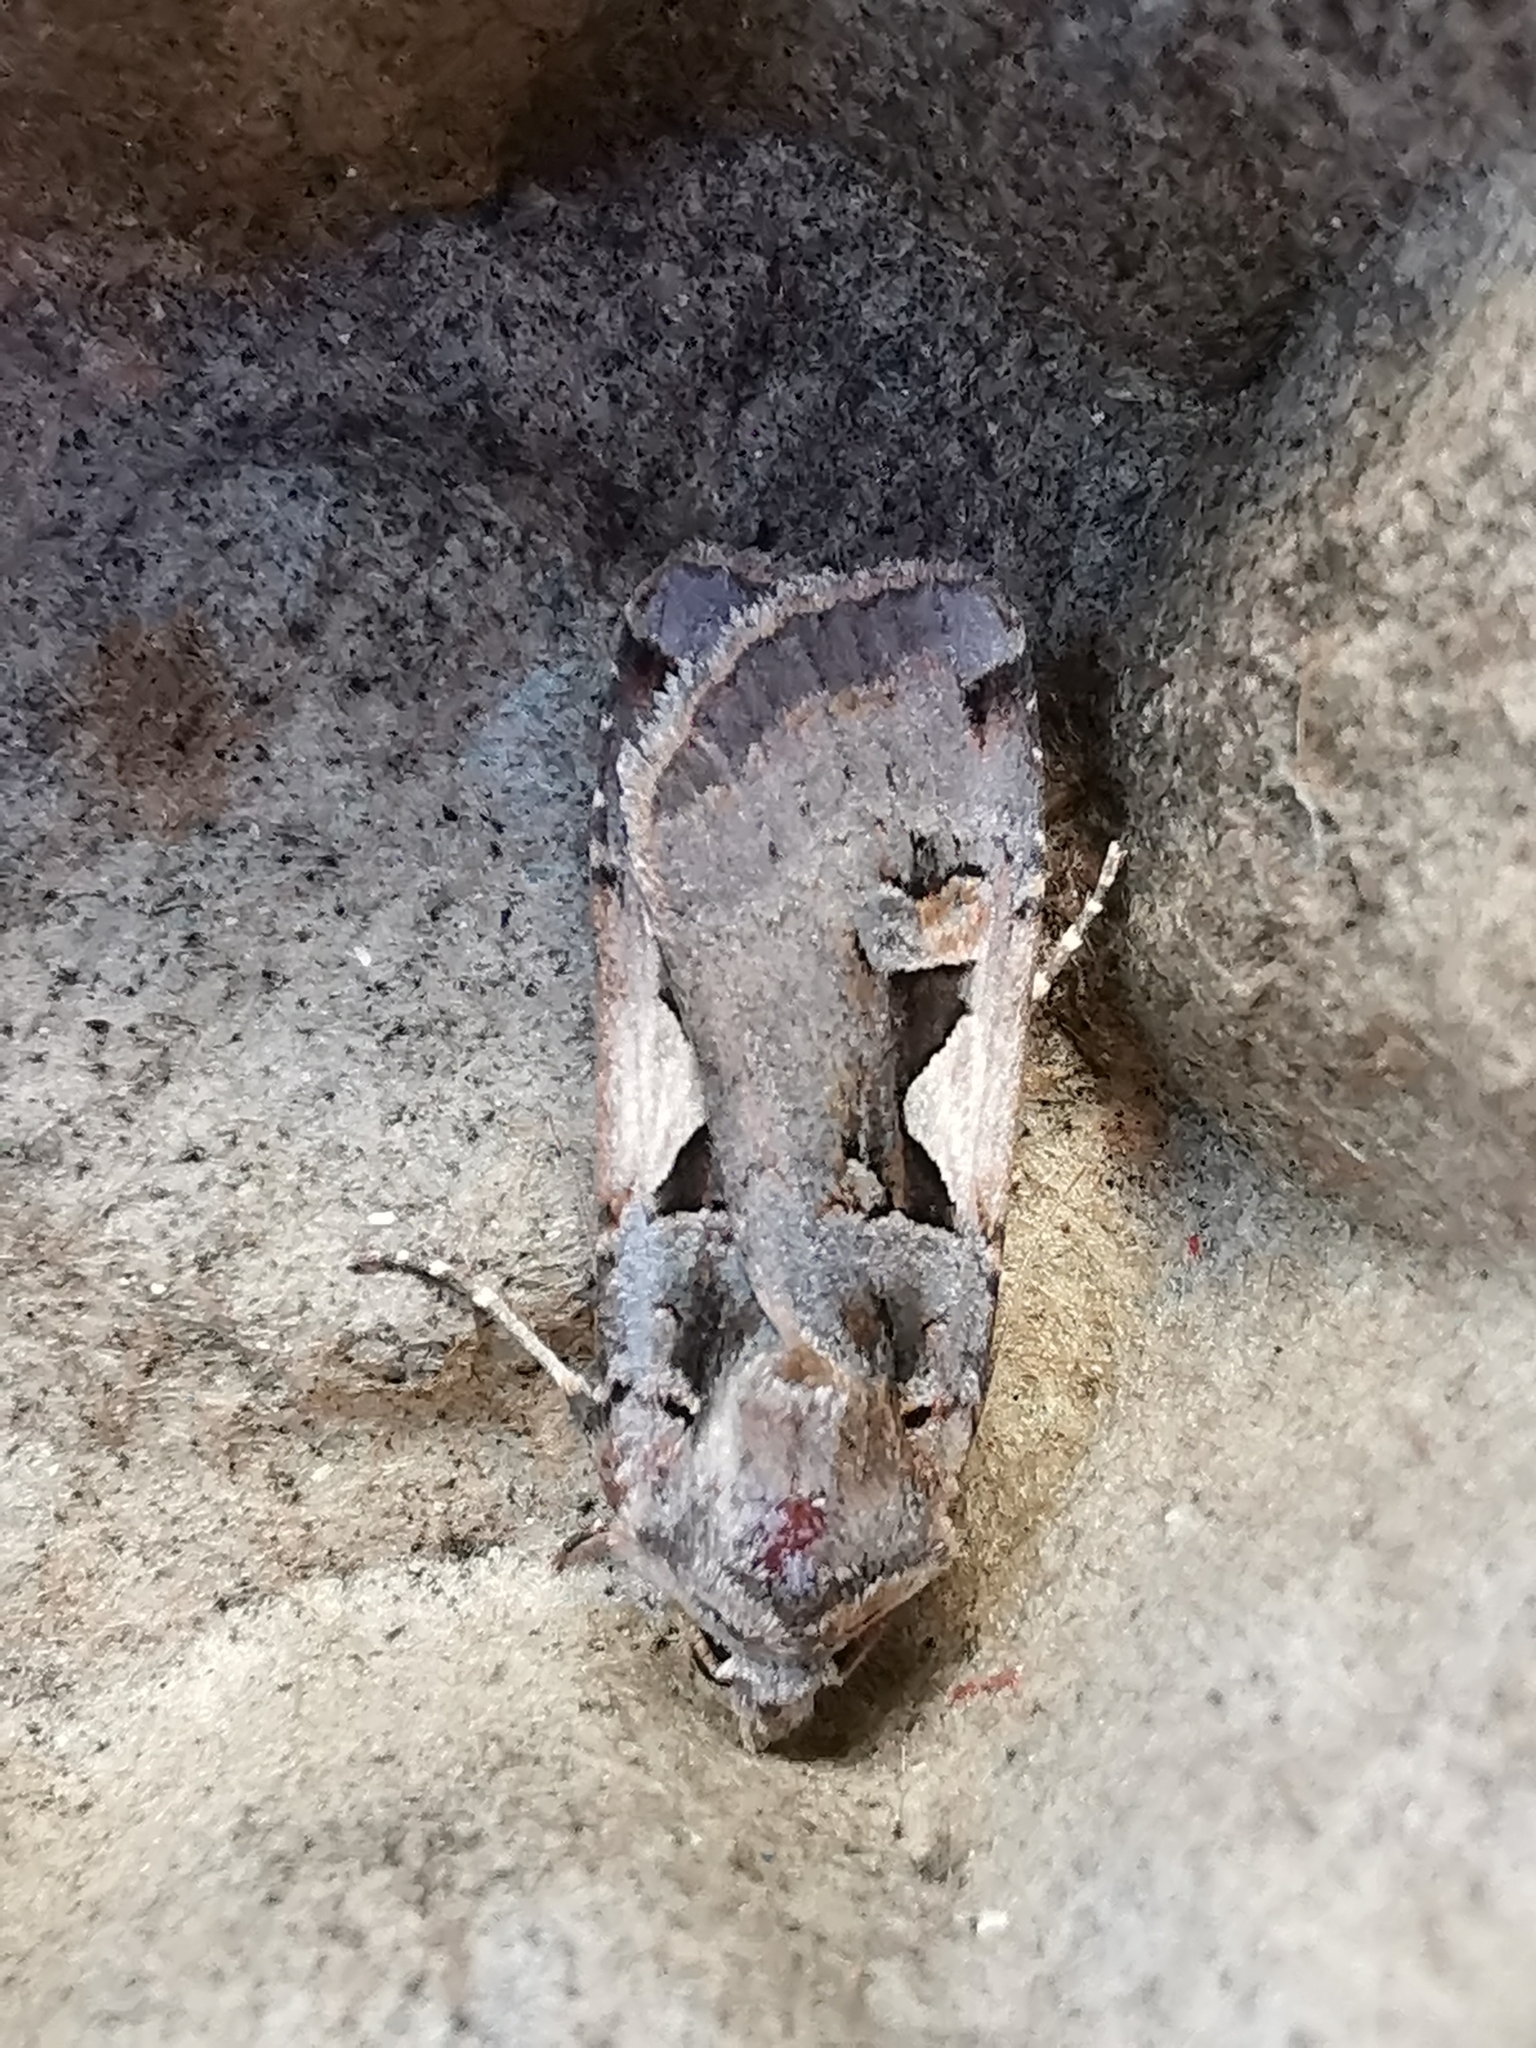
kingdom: Animalia
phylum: Arthropoda
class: Insecta
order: Lepidoptera
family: Noctuidae
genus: Xestia
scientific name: Xestia c-nigrum
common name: Setaceous hebrew character
